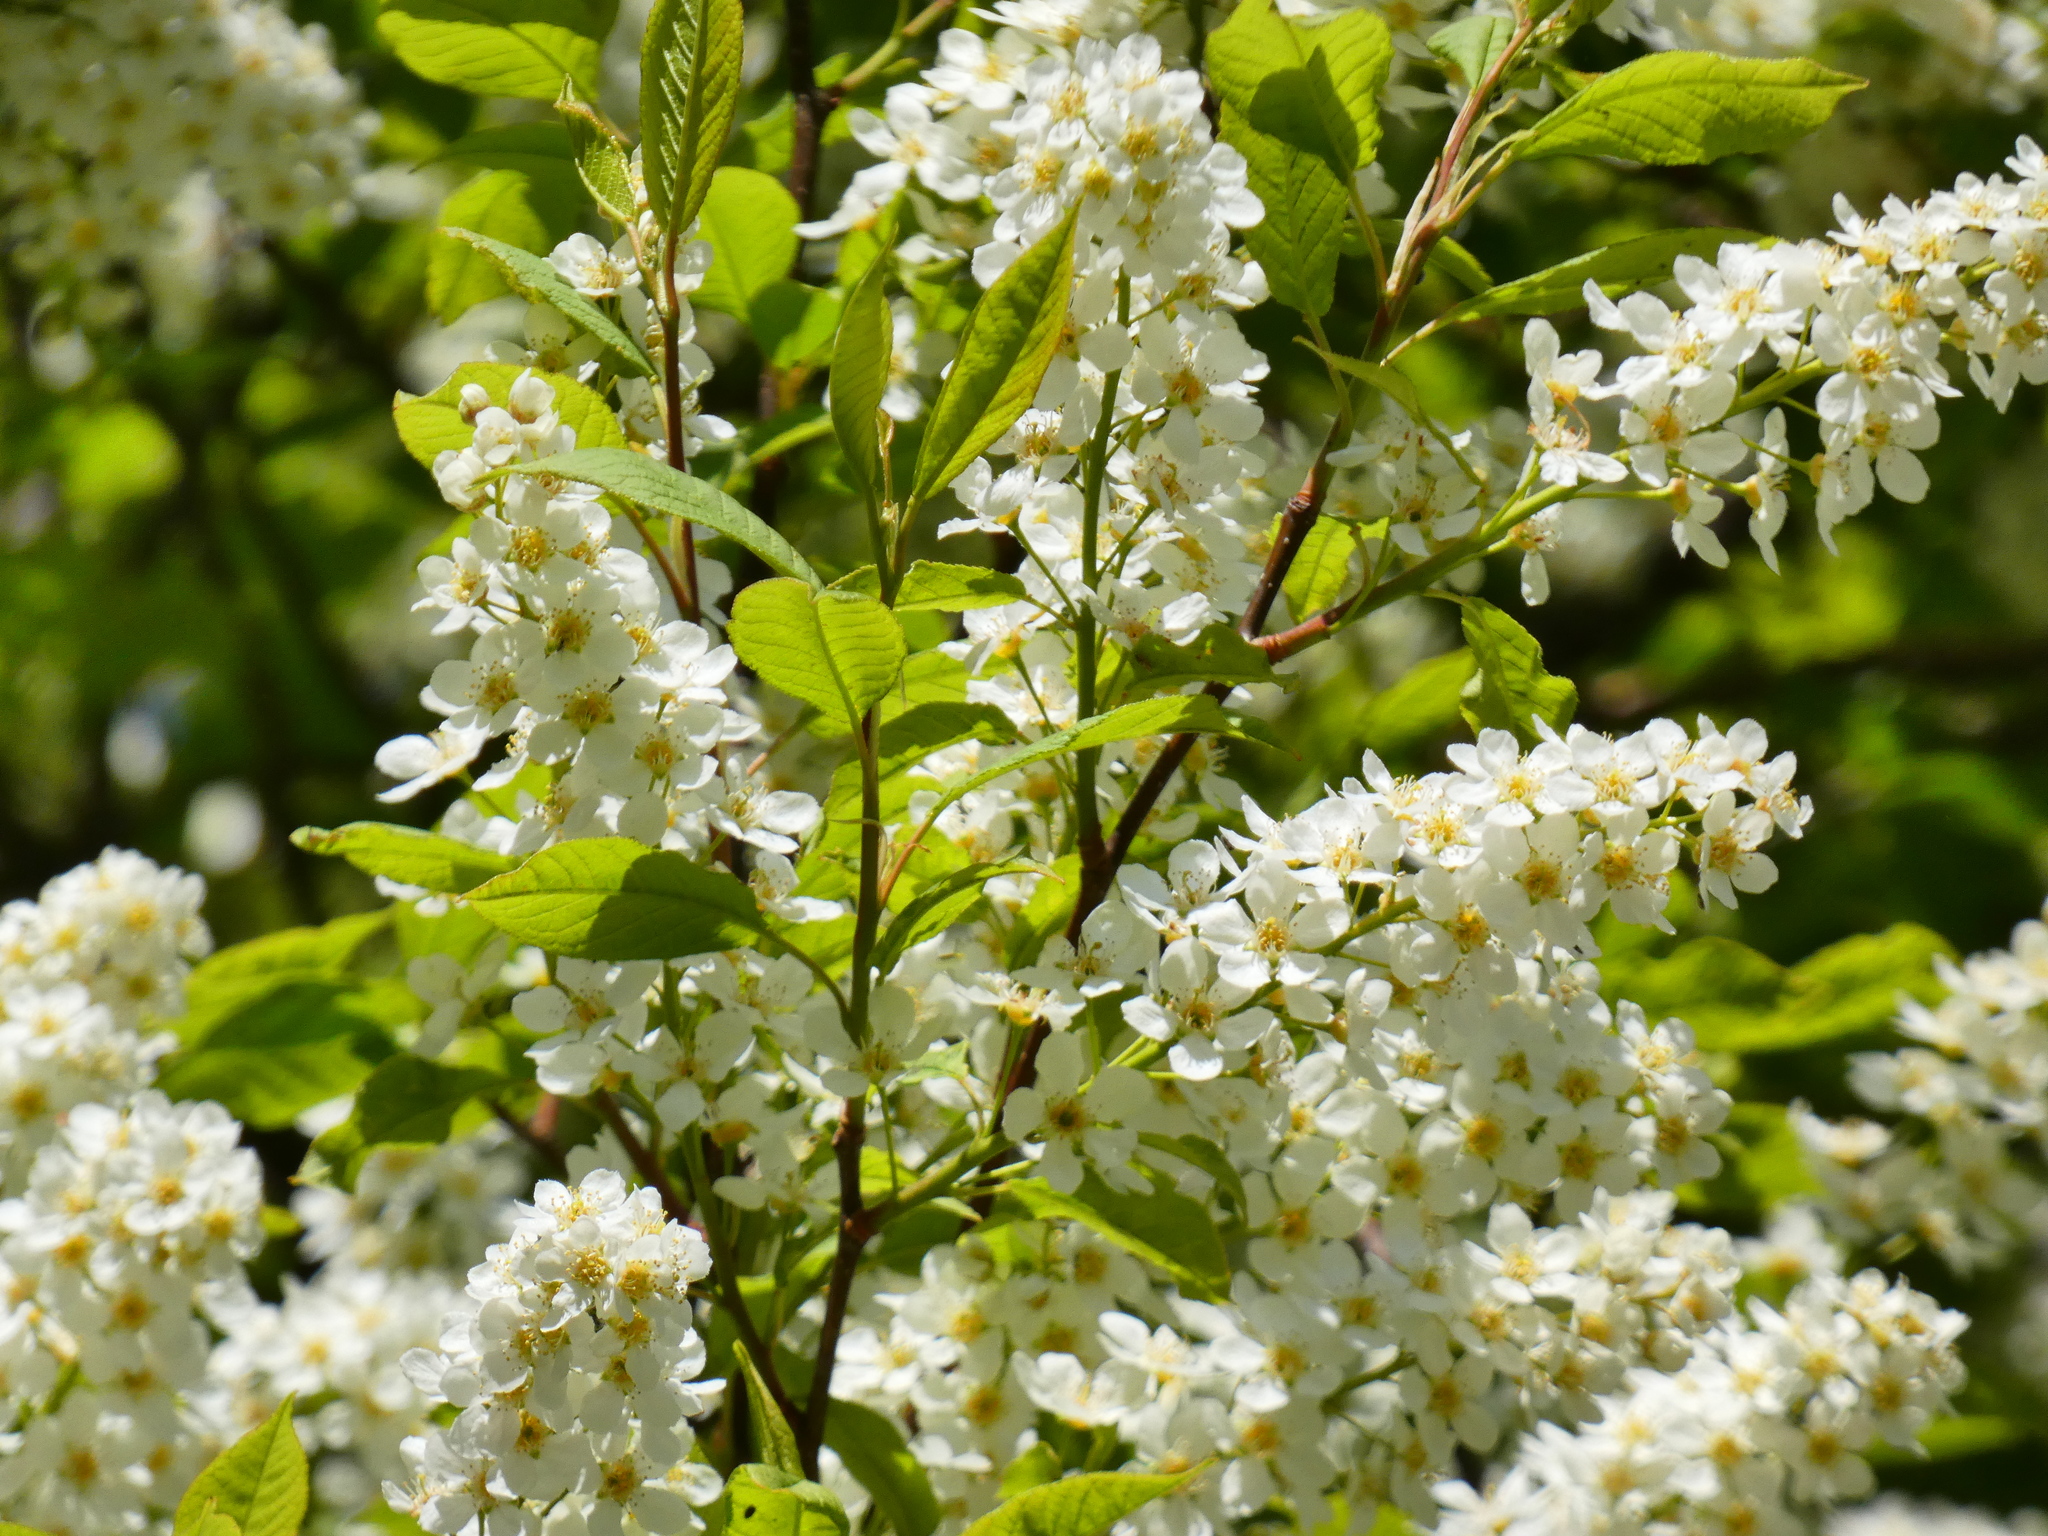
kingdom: Plantae
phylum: Tracheophyta
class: Magnoliopsida
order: Rosales
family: Rosaceae
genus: Prunus
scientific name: Prunus padus
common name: Bird cherry
